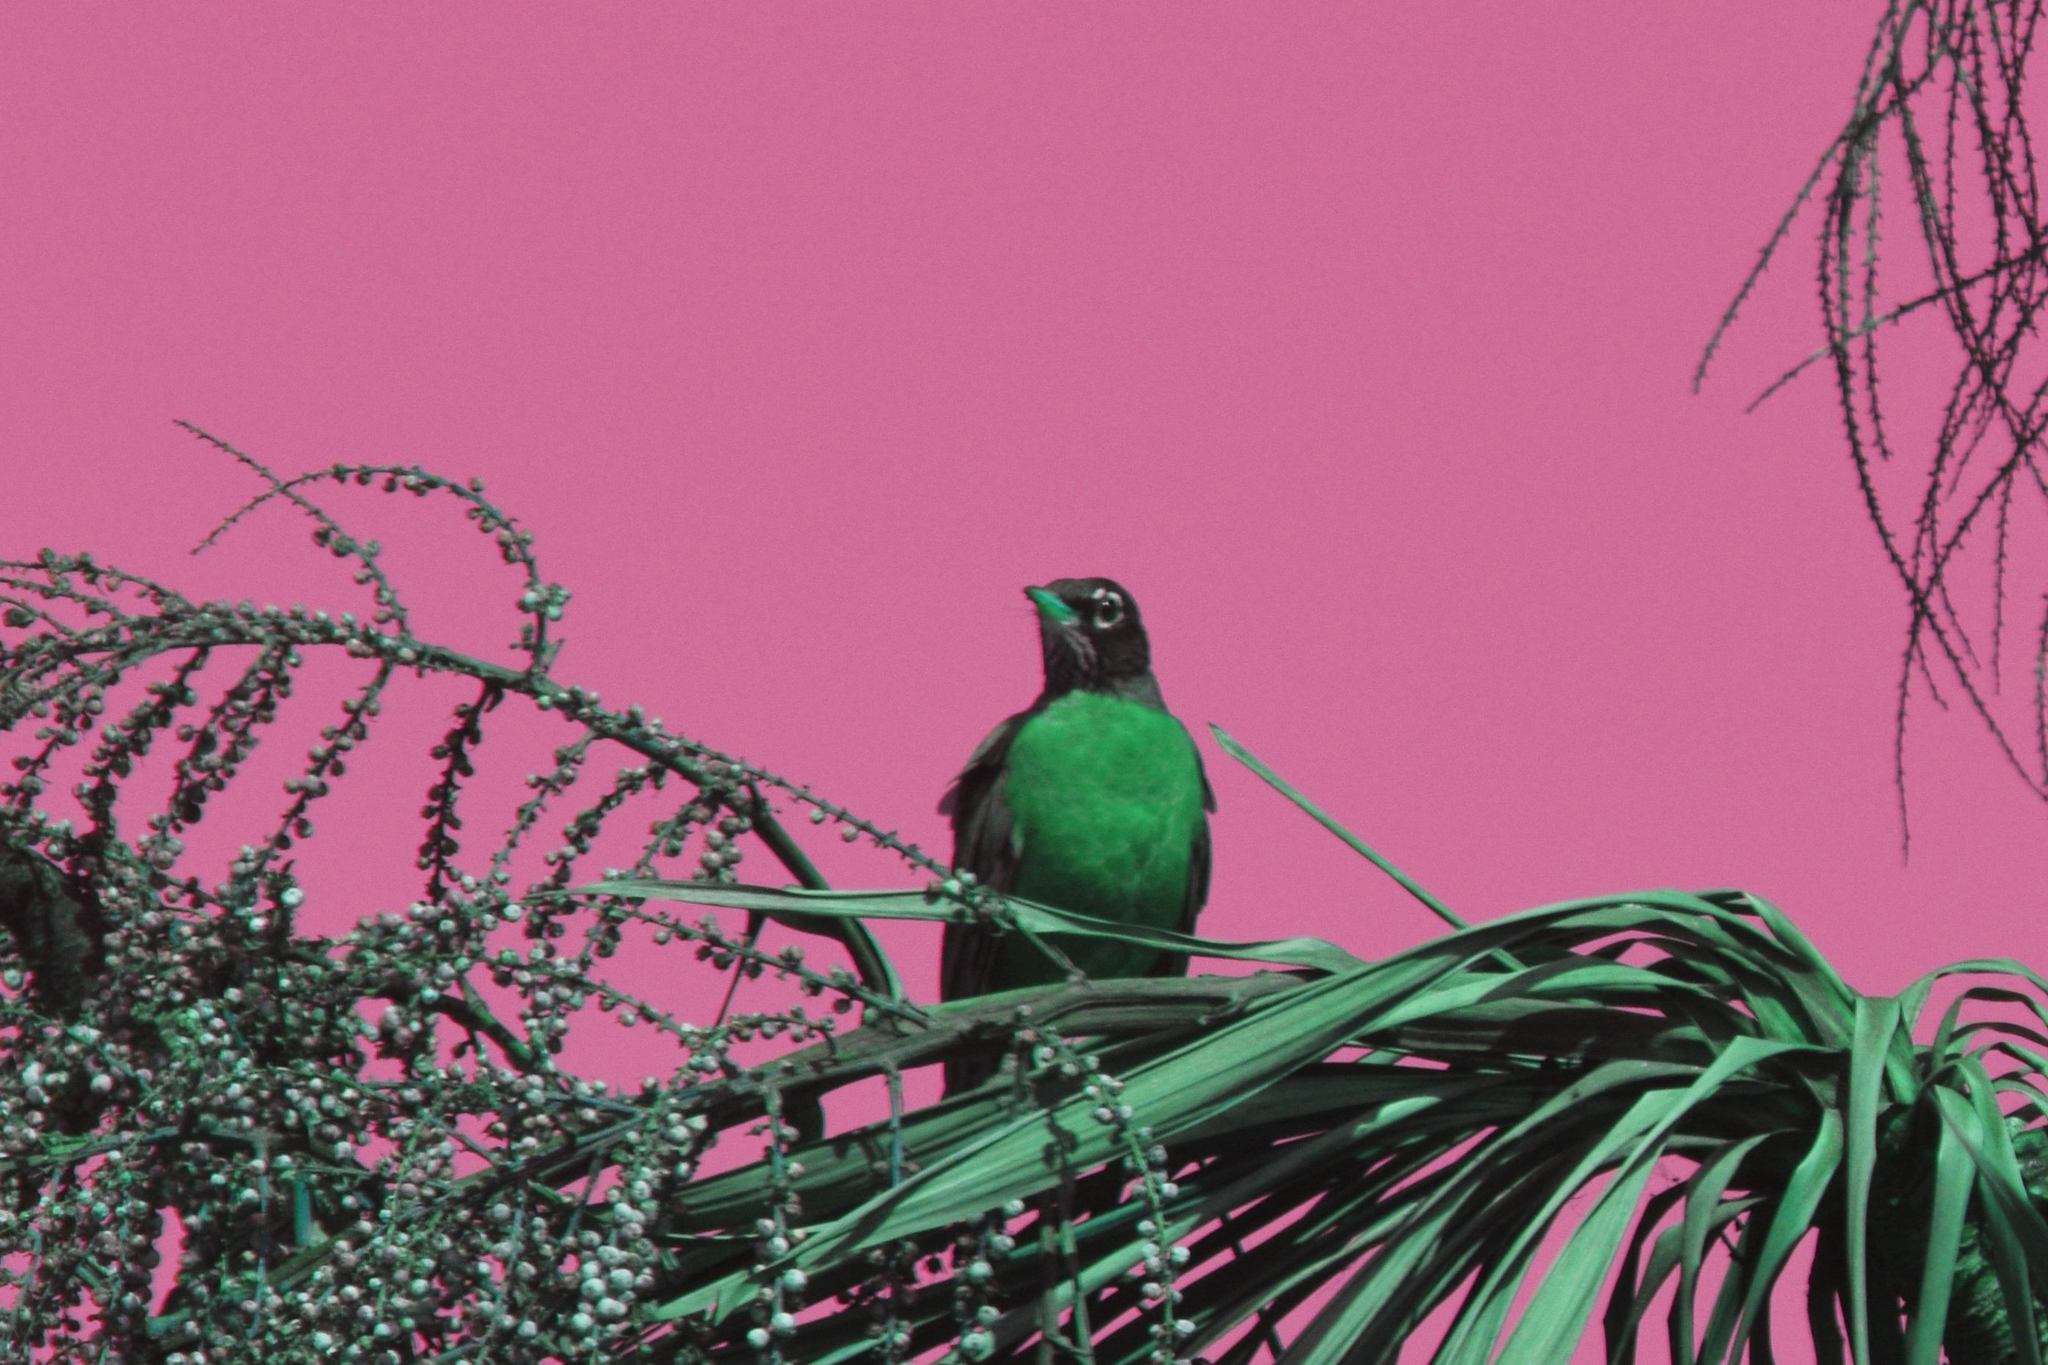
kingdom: Animalia
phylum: Chordata
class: Aves
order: Passeriformes
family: Turdidae
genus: Turdus
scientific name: Turdus migratorius
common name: American robin
